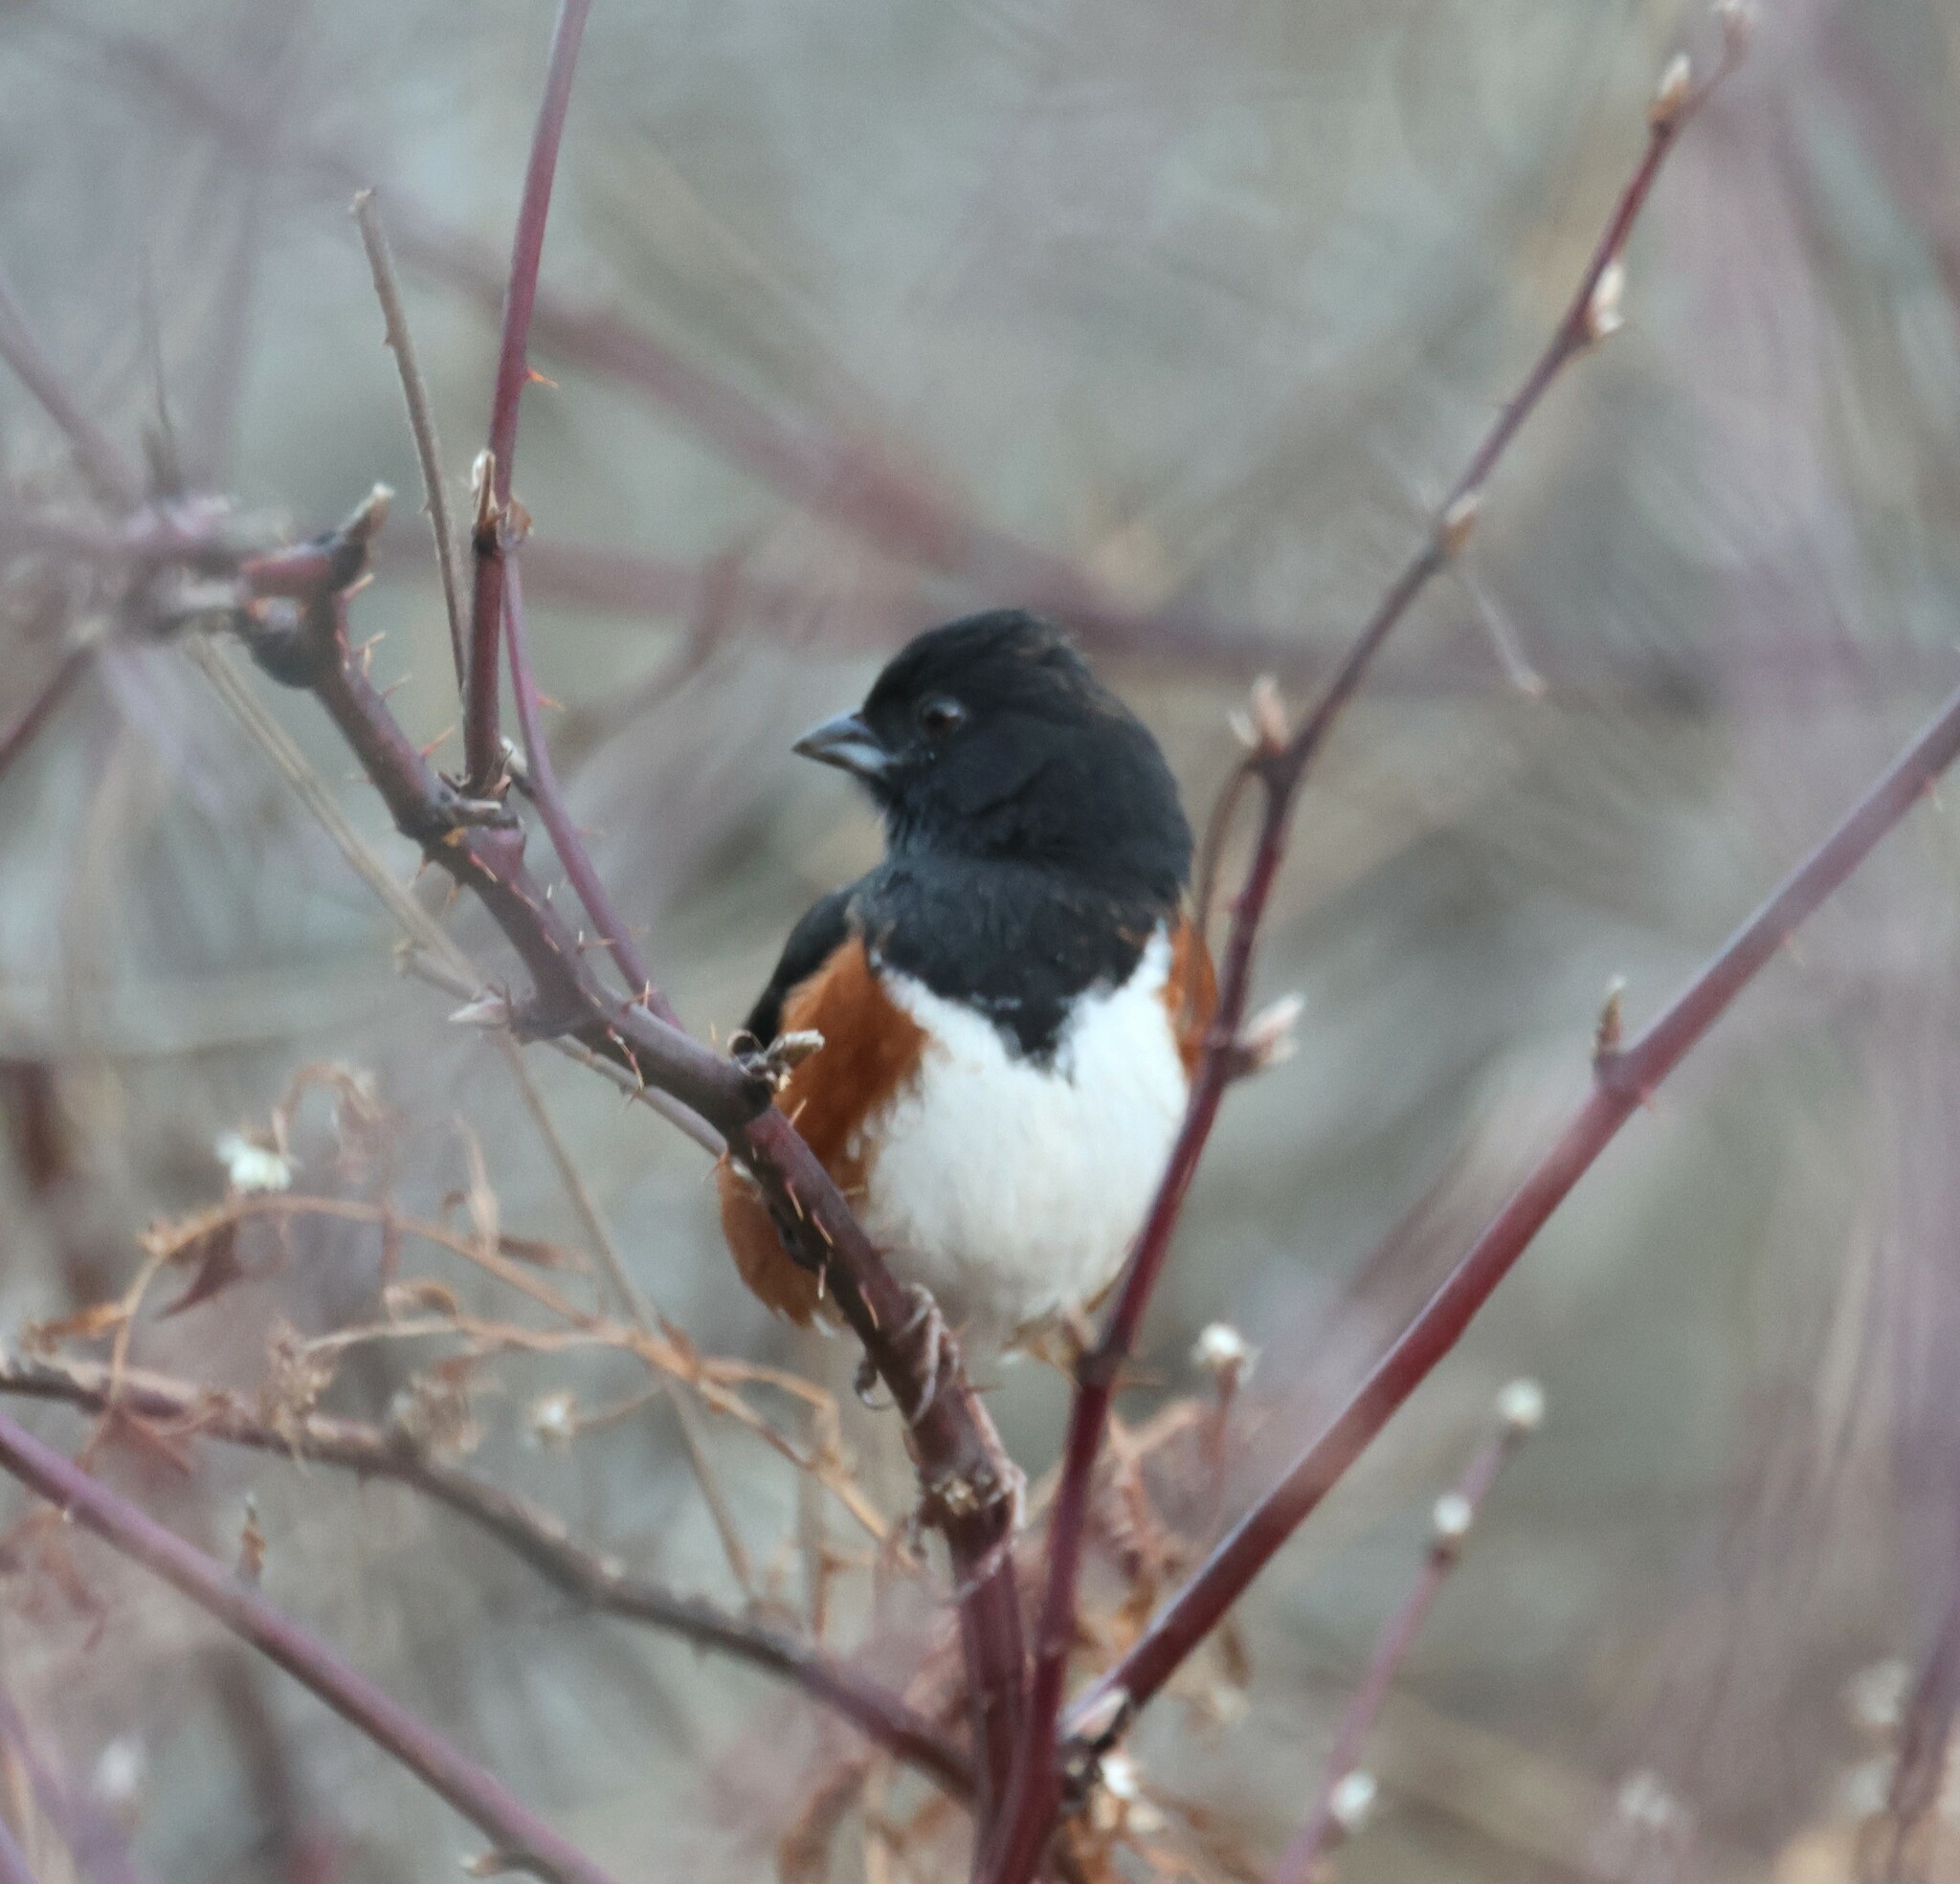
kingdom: Animalia
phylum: Chordata
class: Aves
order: Passeriformes
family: Passerellidae
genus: Pipilo
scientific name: Pipilo erythrophthalmus
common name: Eastern towhee
